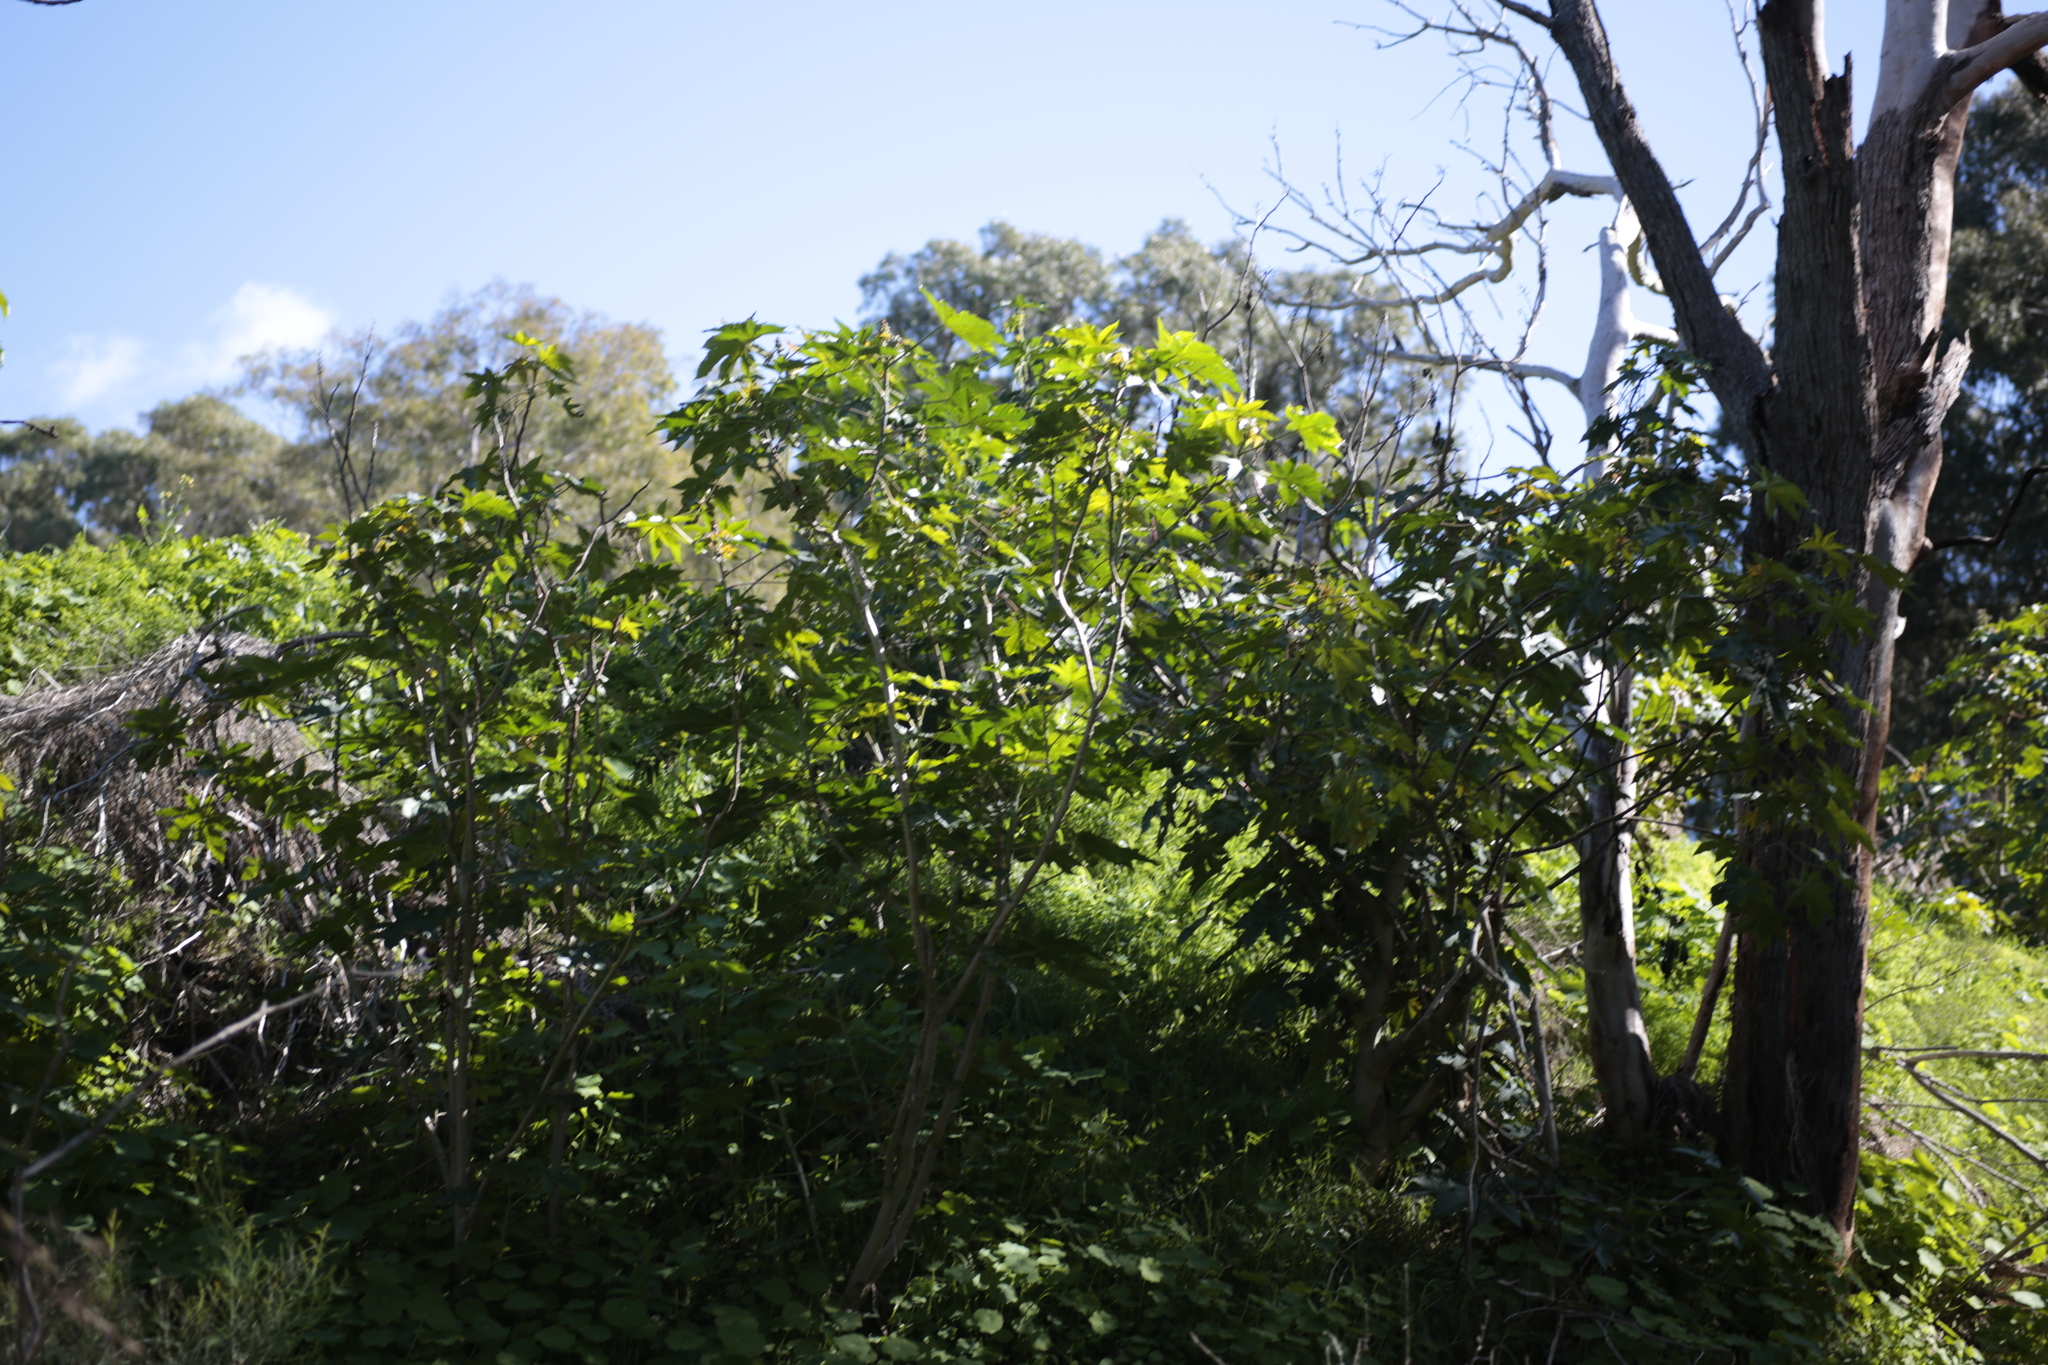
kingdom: Plantae
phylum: Tracheophyta
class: Magnoliopsida
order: Malpighiales
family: Euphorbiaceae
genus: Ricinus
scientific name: Ricinus communis
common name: Castor-oil-plant
